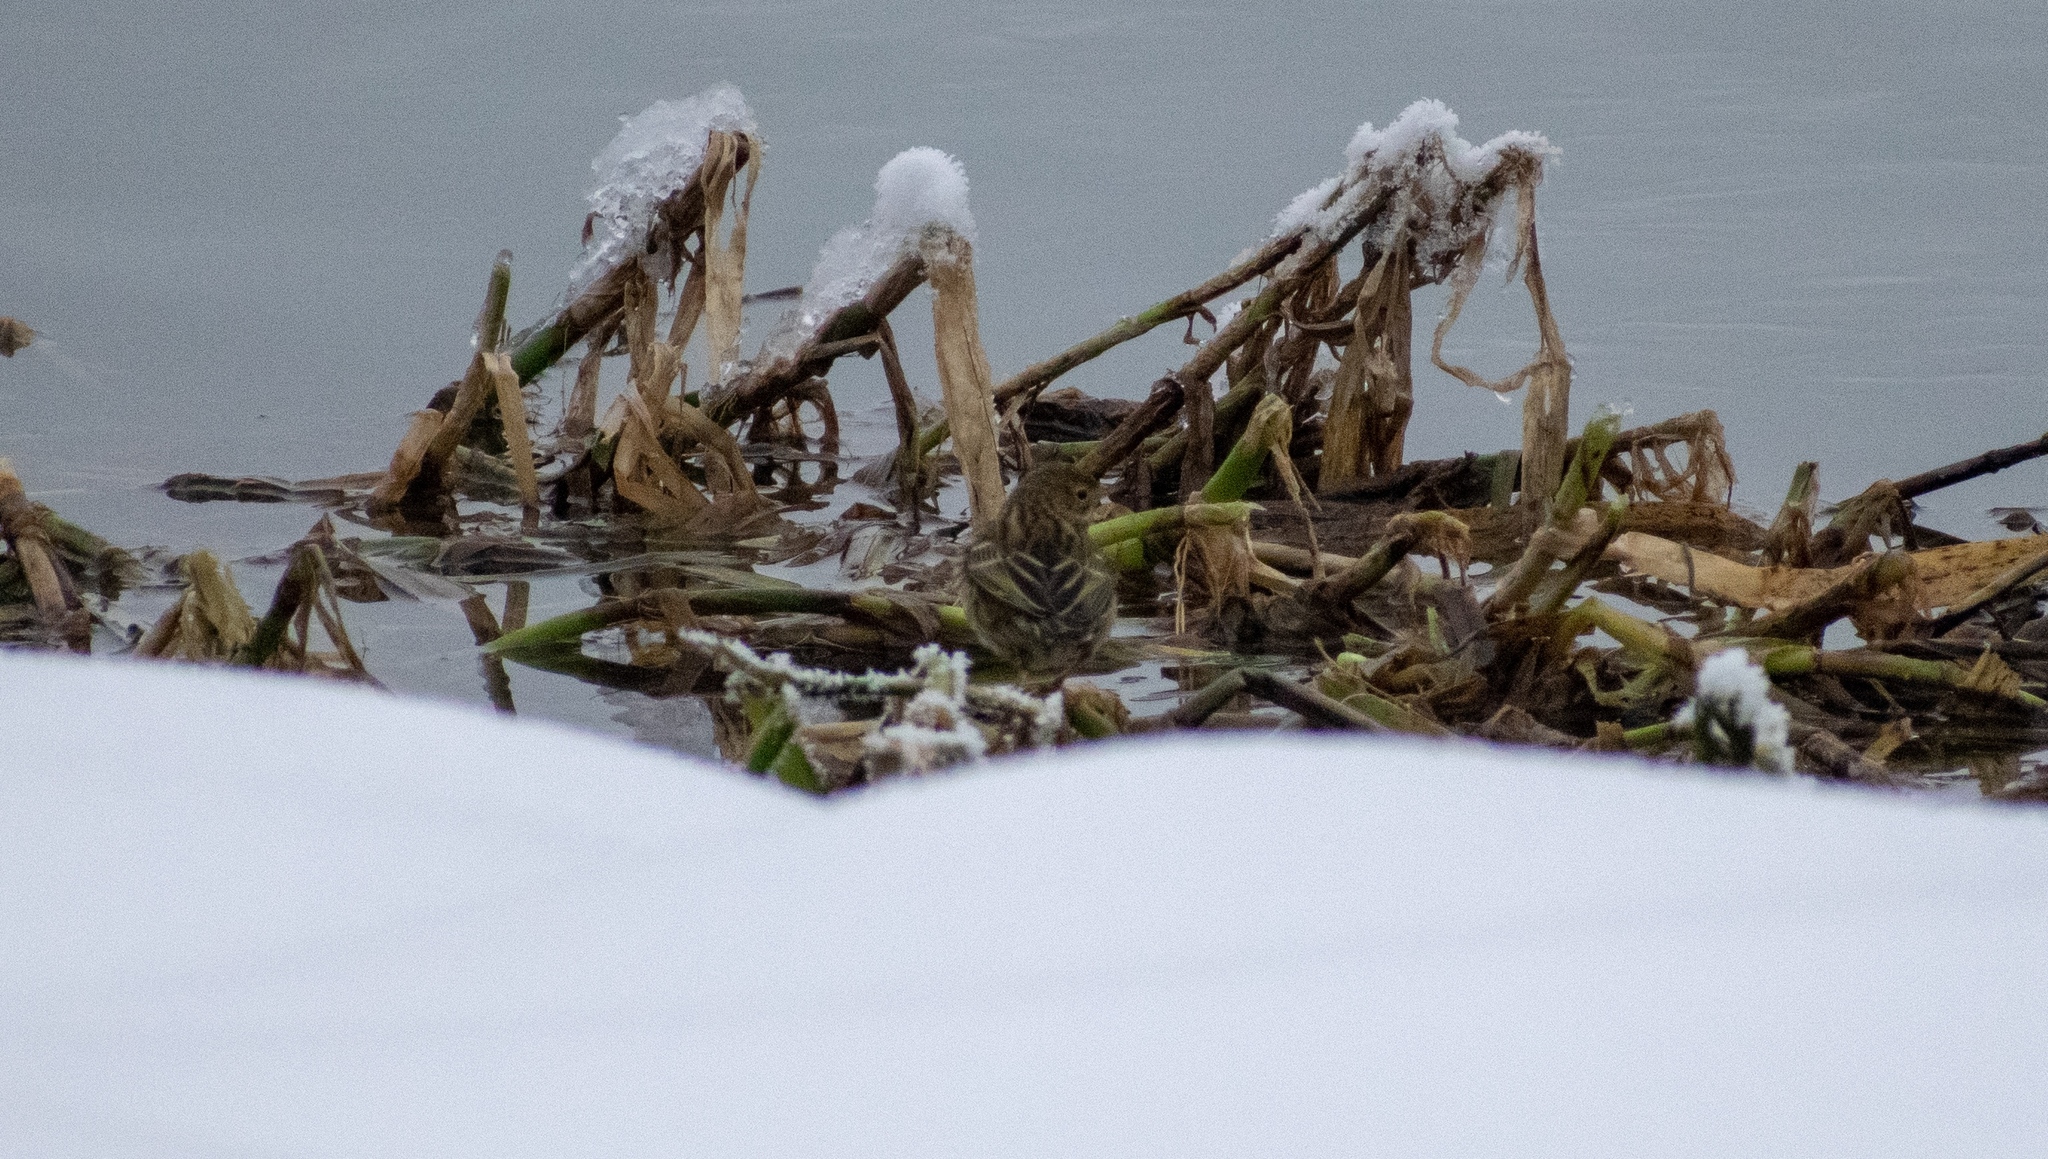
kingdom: Animalia
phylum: Chordata
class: Aves
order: Passeriformes
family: Motacillidae
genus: Anthus
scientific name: Anthus spinoletta
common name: Water pipit
